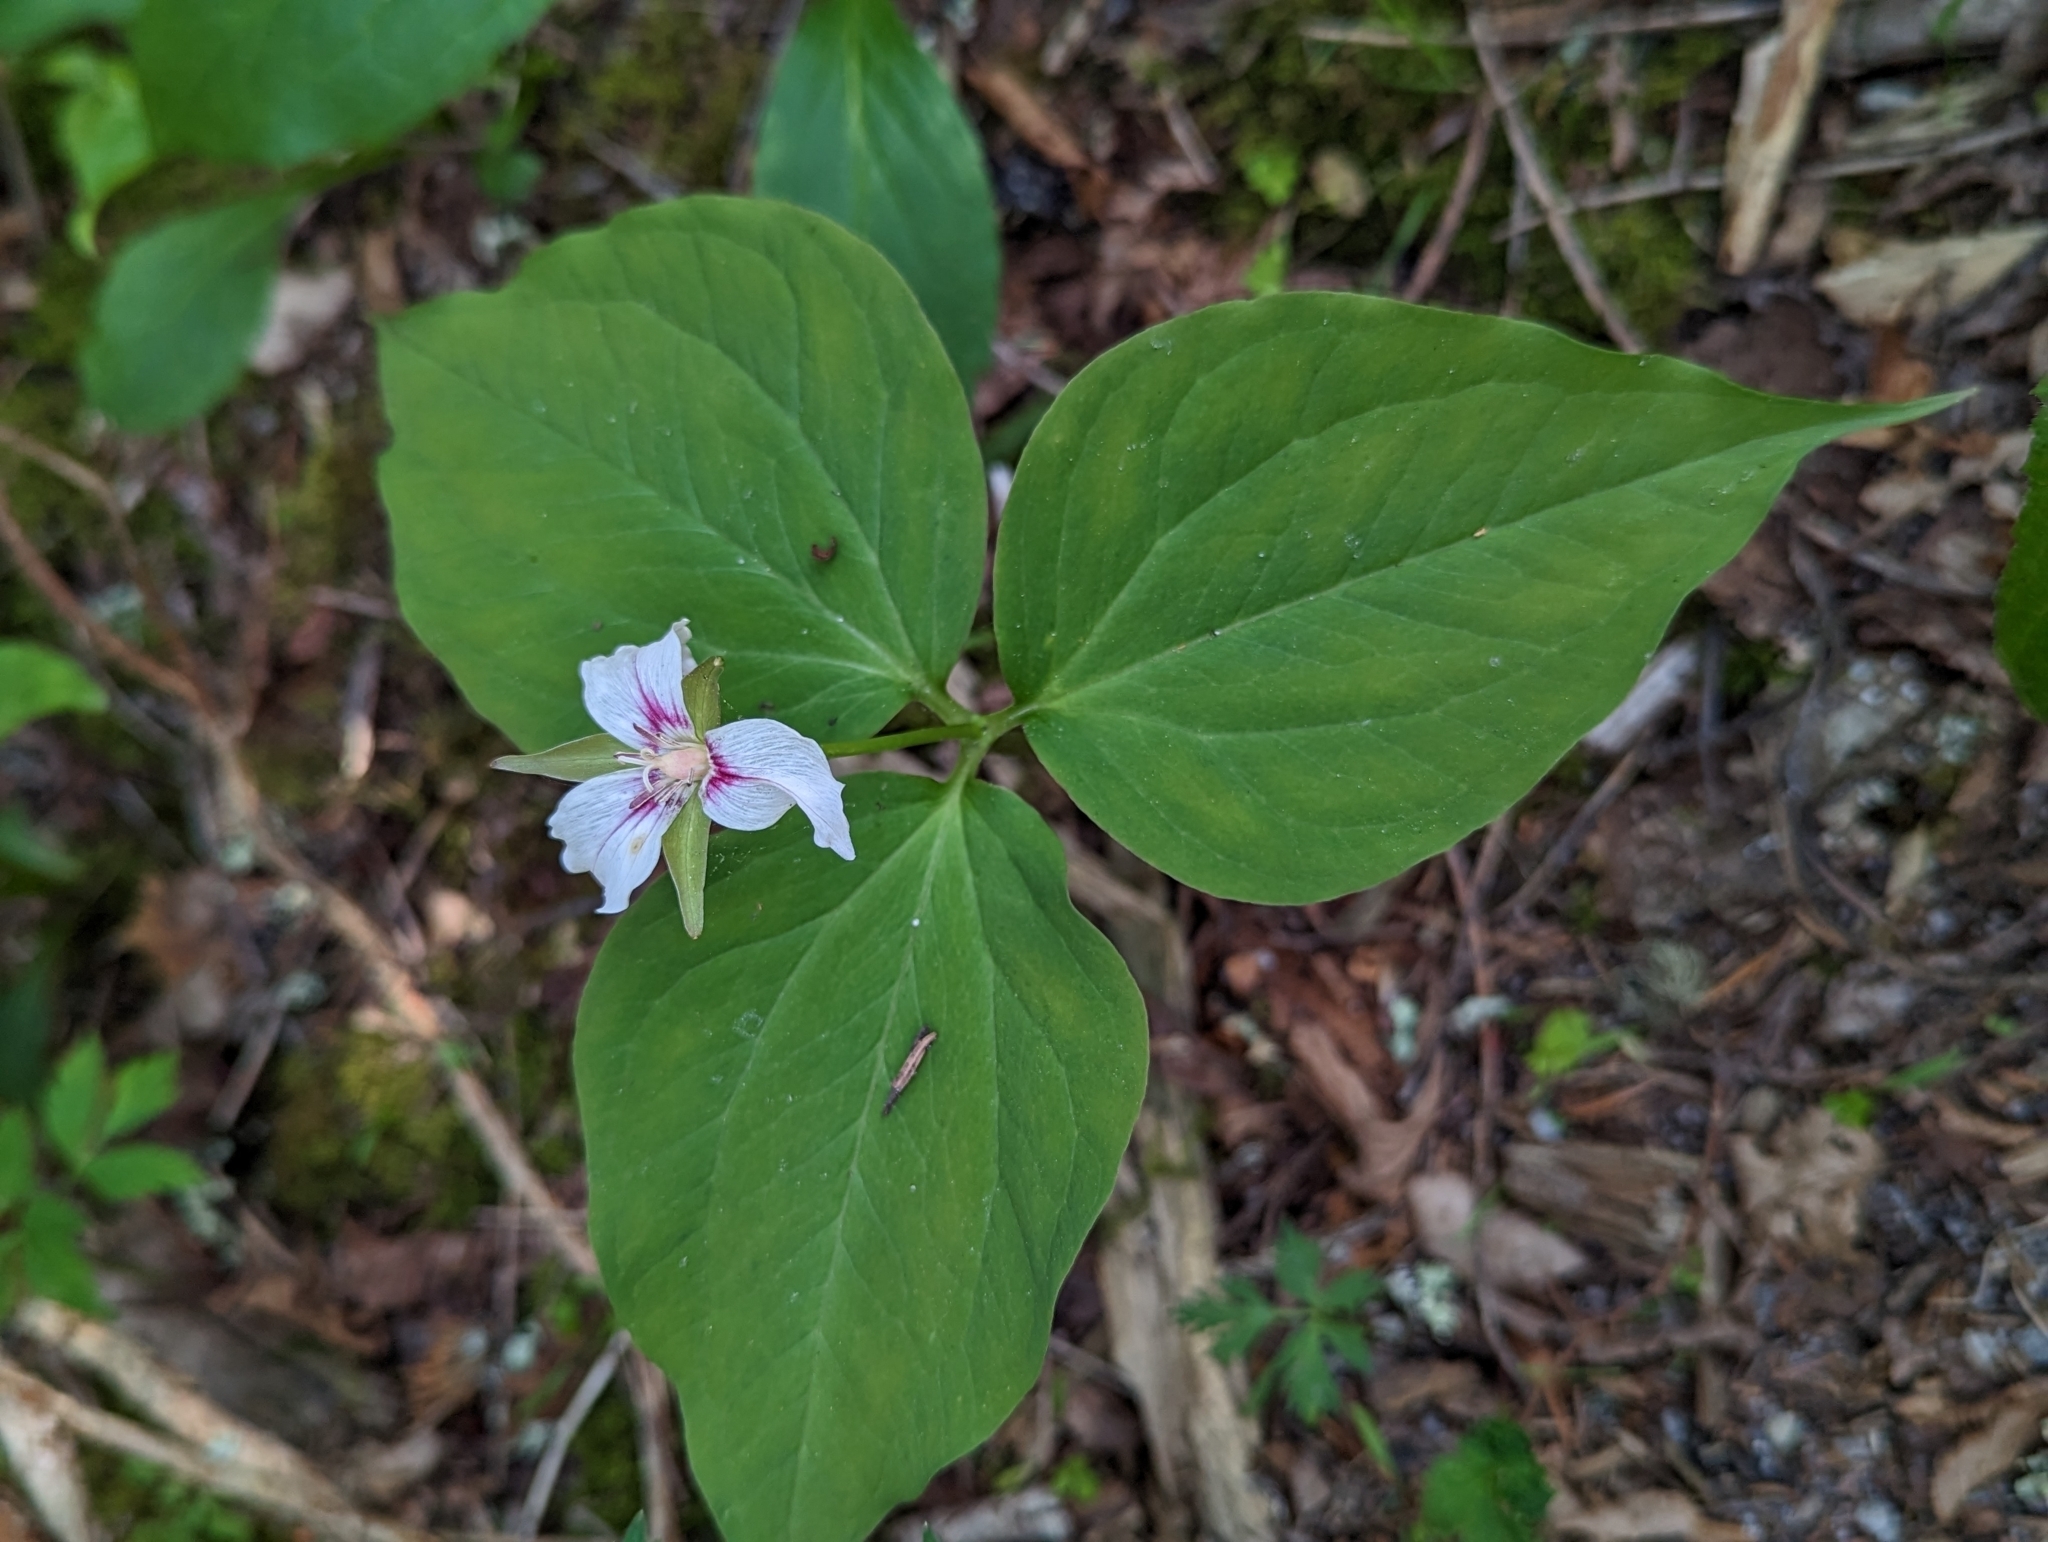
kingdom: Plantae
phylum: Tracheophyta
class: Liliopsida
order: Liliales
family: Melanthiaceae
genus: Trillium
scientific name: Trillium undulatum
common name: Paint trillium
